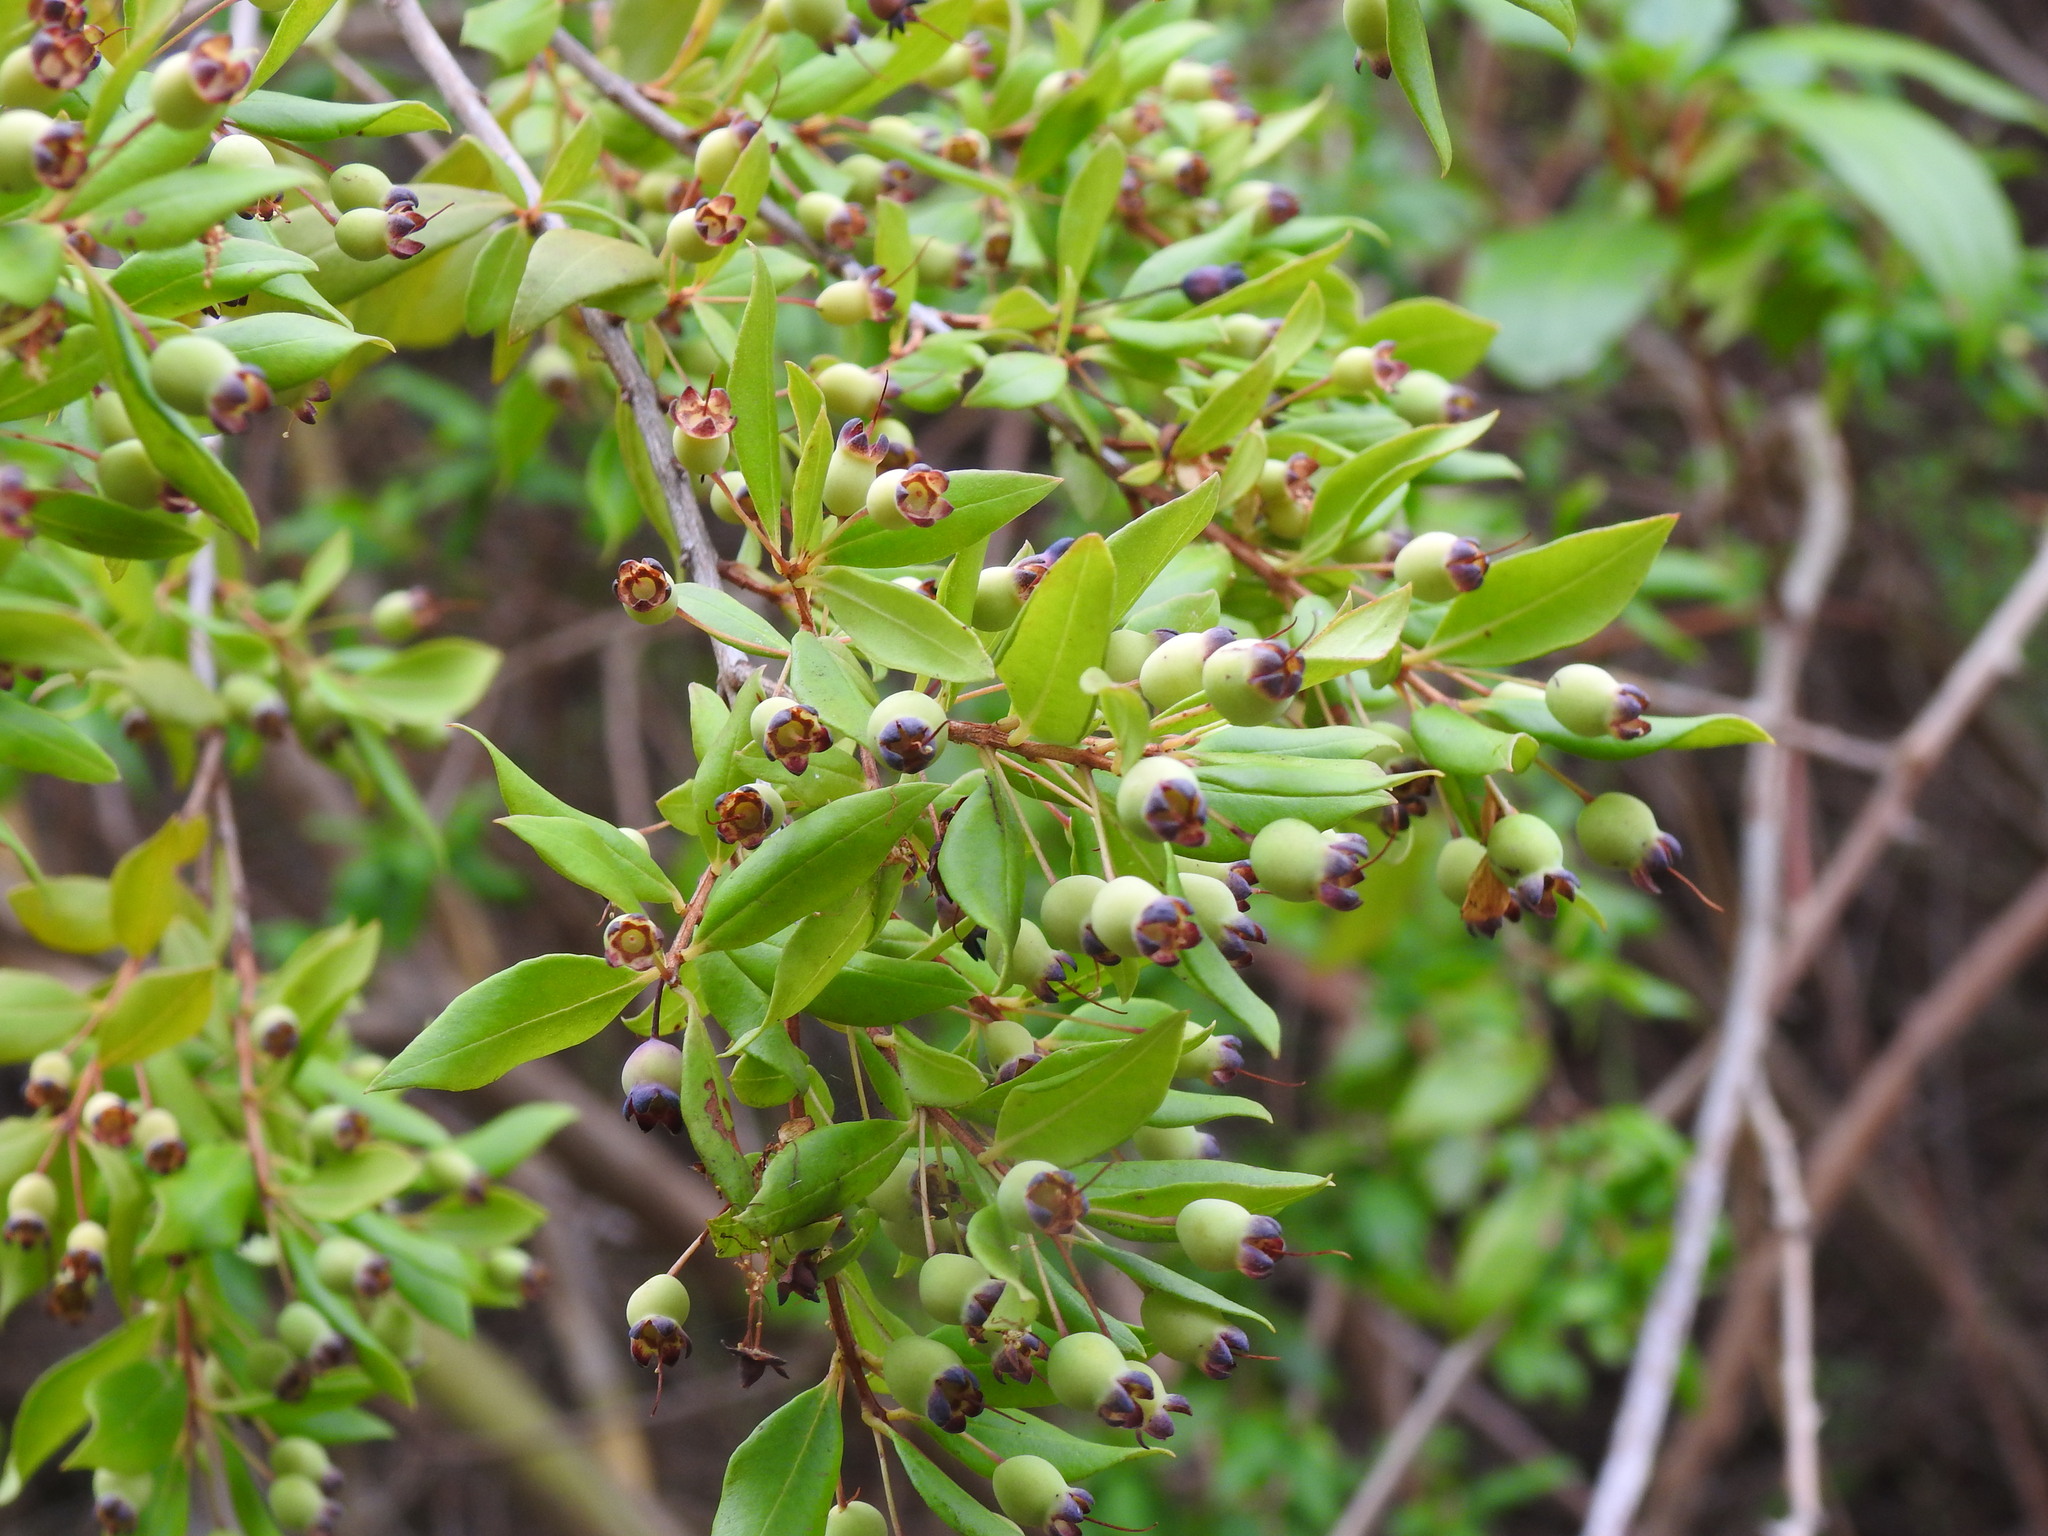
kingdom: Plantae
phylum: Tracheophyta
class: Magnoliopsida
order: Myrtales
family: Myrtaceae
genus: Myrtus
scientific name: Myrtus communis
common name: Myrtle
